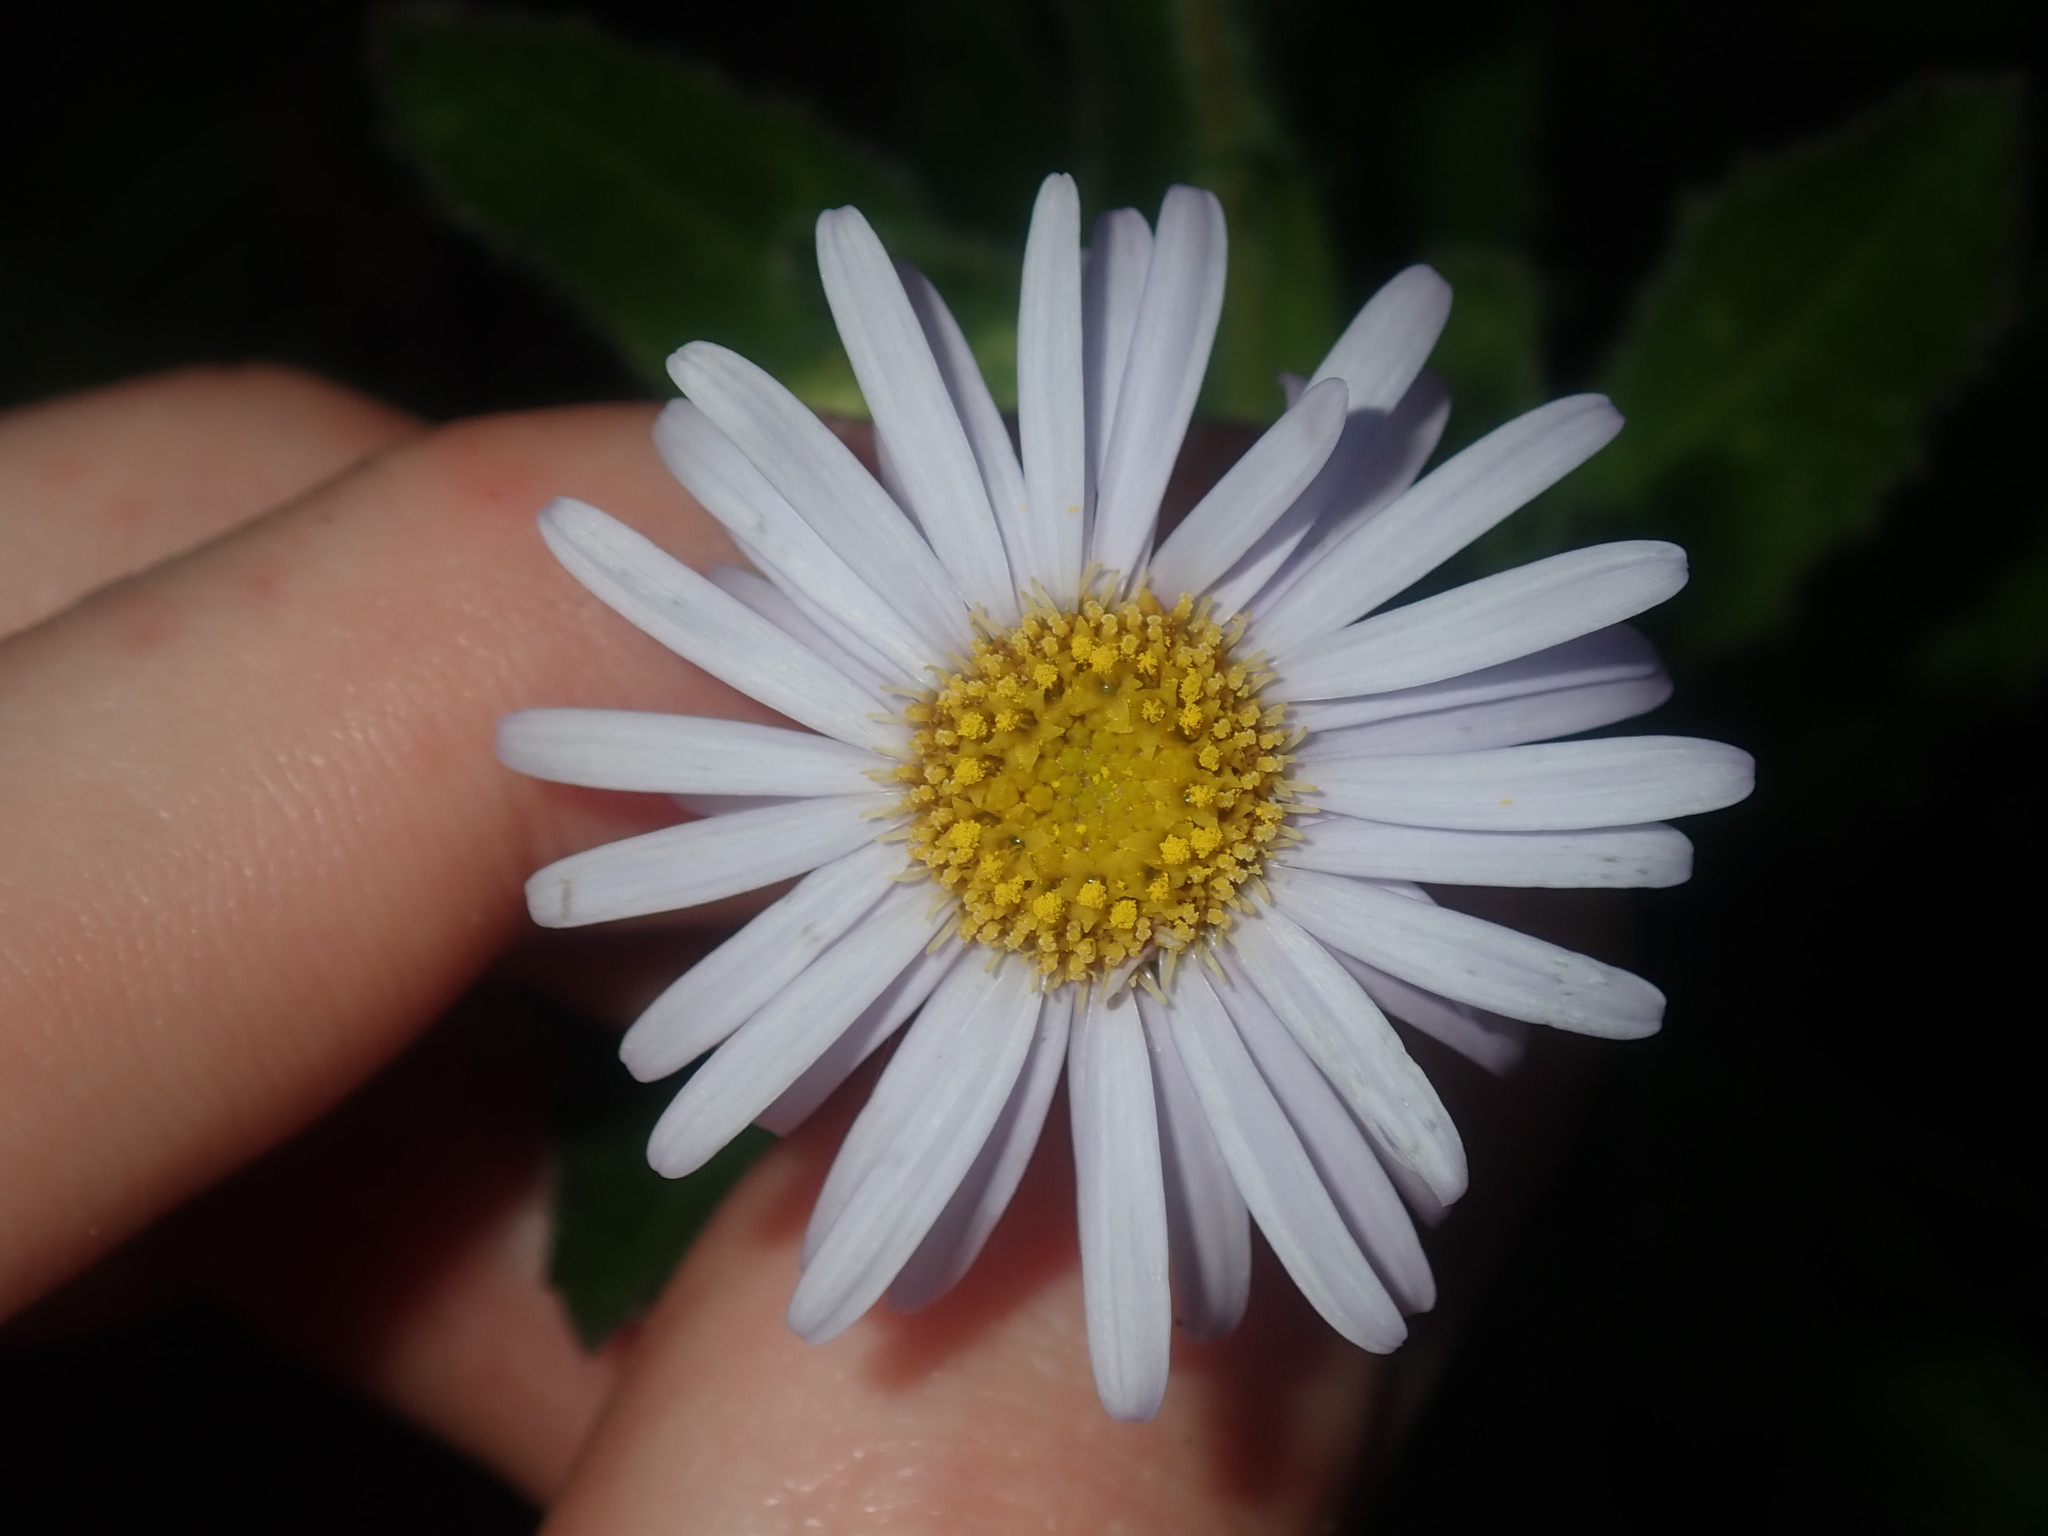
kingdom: Plantae
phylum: Tracheophyta
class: Magnoliopsida
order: Asterales
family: Asteraceae
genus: Muellerolaria
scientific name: Muellerolaria rudis
